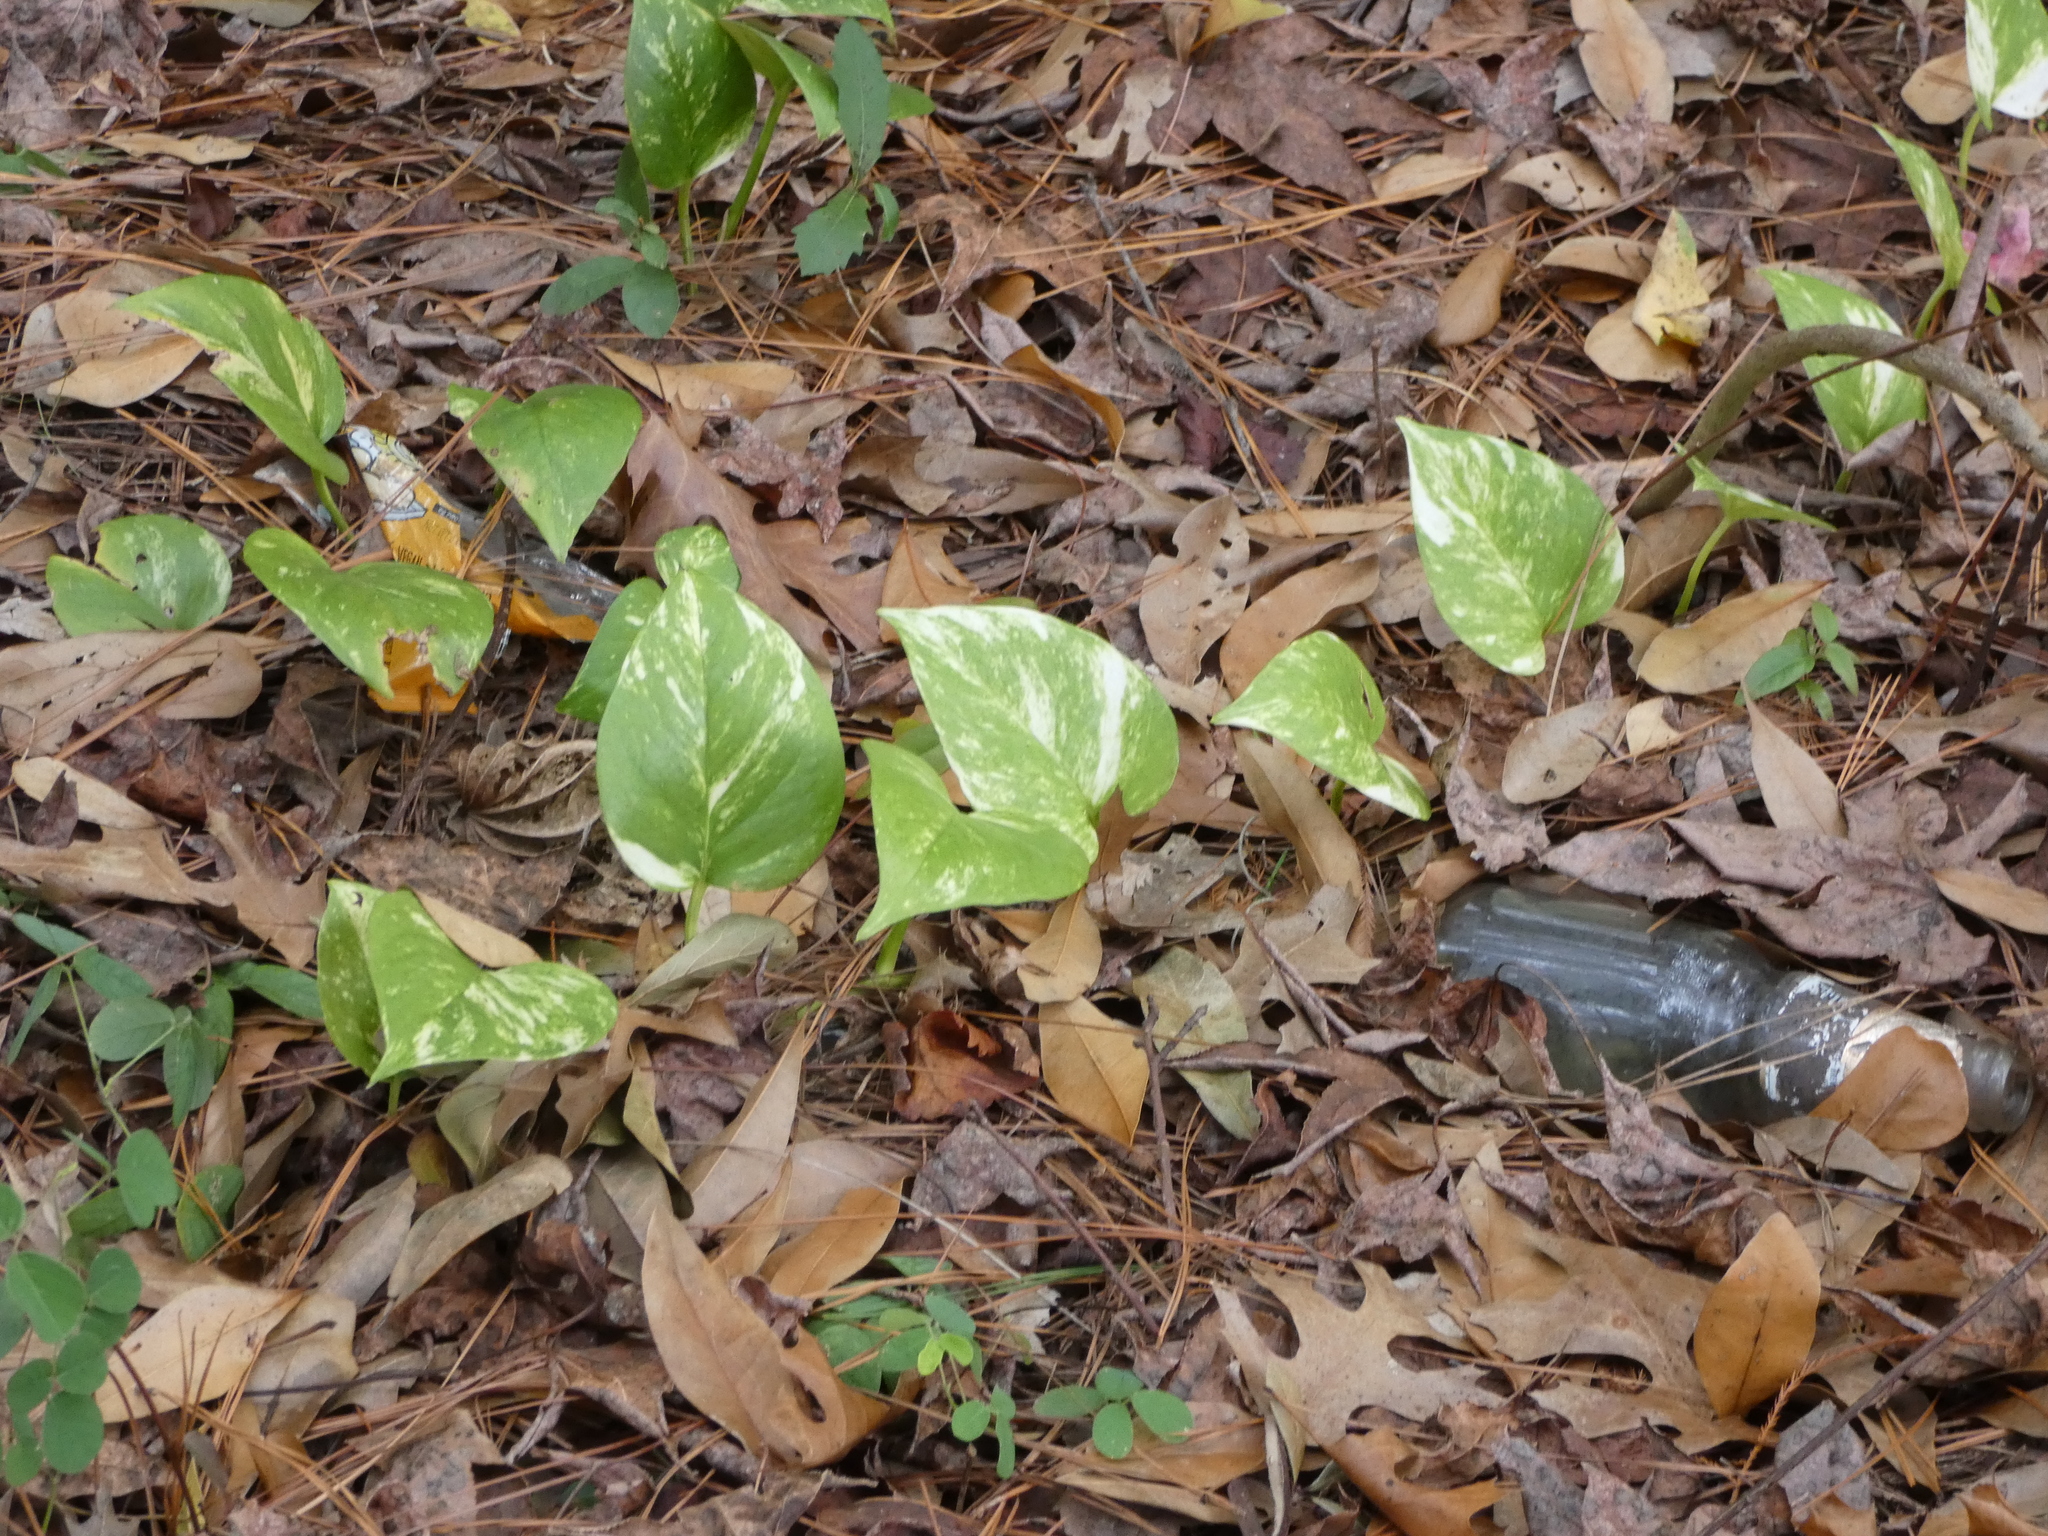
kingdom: Plantae
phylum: Tracheophyta
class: Liliopsida
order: Alismatales
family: Araceae
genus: Epipremnum
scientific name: Epipremnum aureum
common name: Golden hunter's-robe
